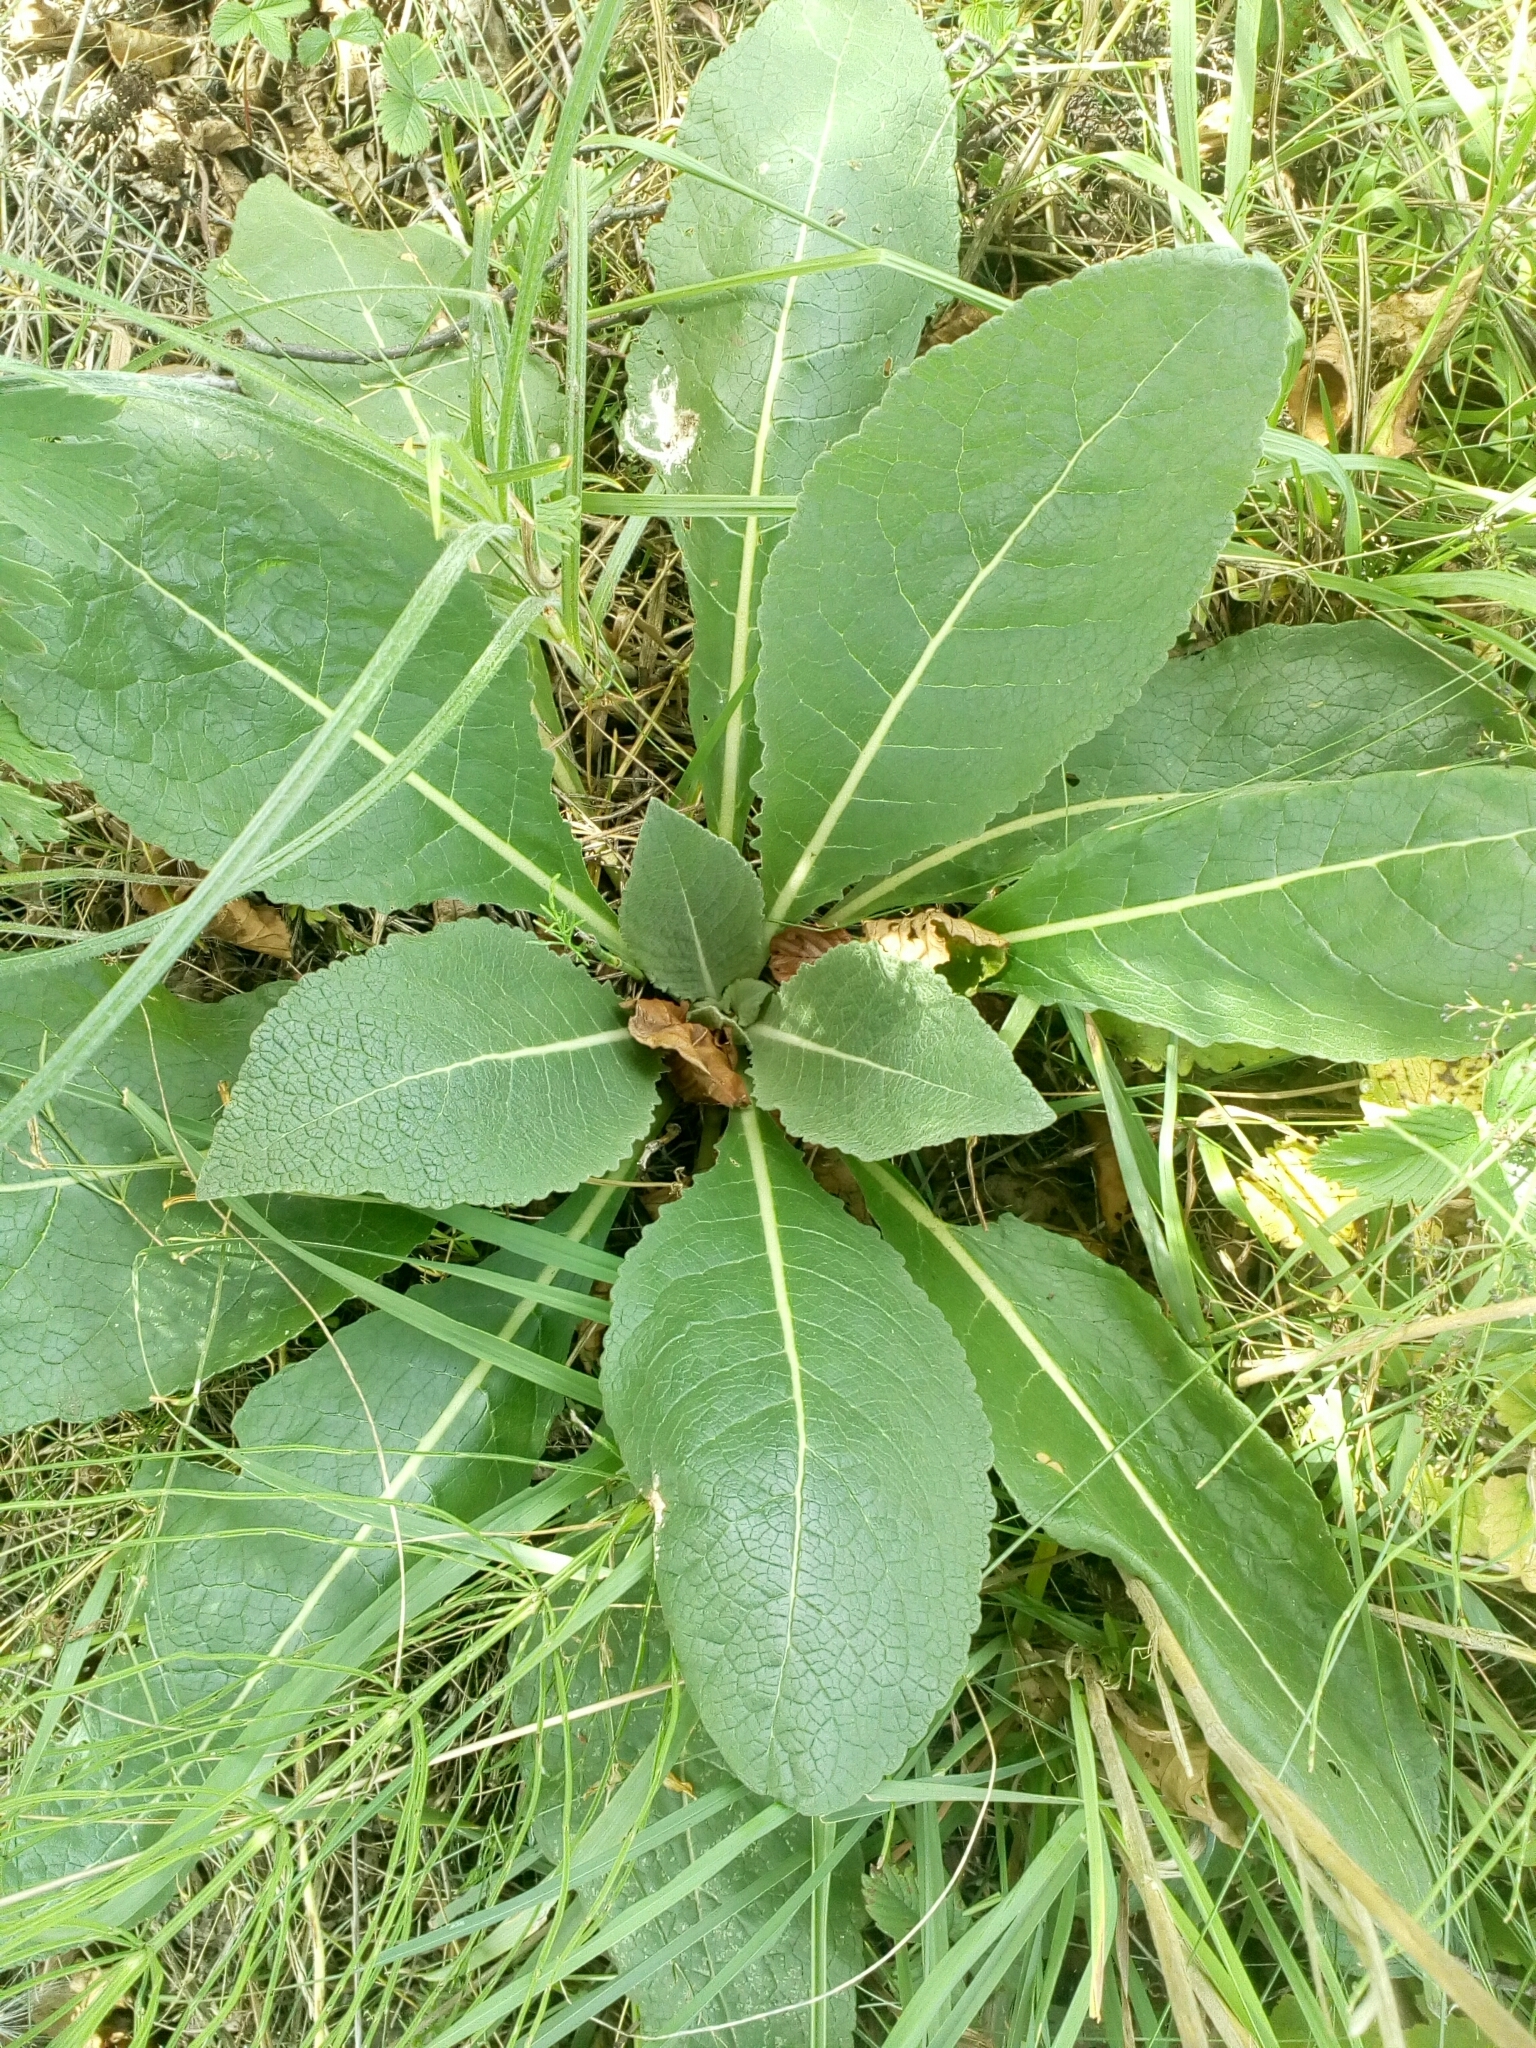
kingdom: Plantae
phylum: Tracheophyta
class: Magnoliopsida
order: Lamiales
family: Scrophulariaceae
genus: Verbascum
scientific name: Verbascum lychnitis
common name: White mullein
